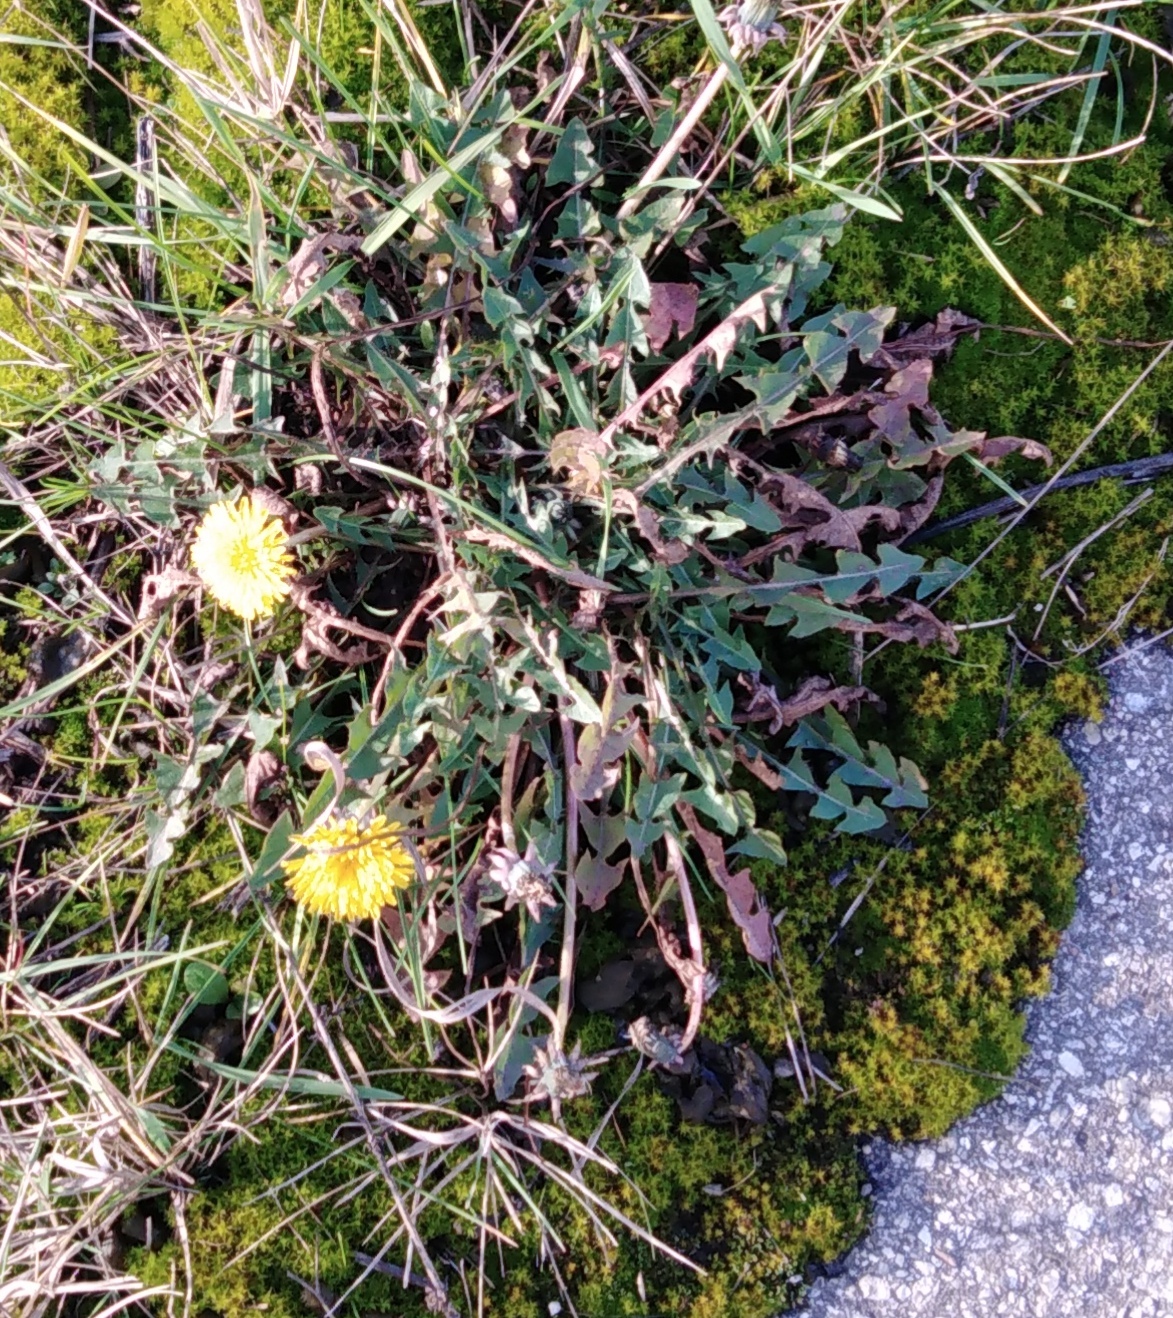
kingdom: Plantae
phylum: Tracheophyta
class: Magnoliopsida
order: Asterales
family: Asteraceae
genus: Taraxacum
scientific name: Taraxacum officinale
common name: Common dandelion
